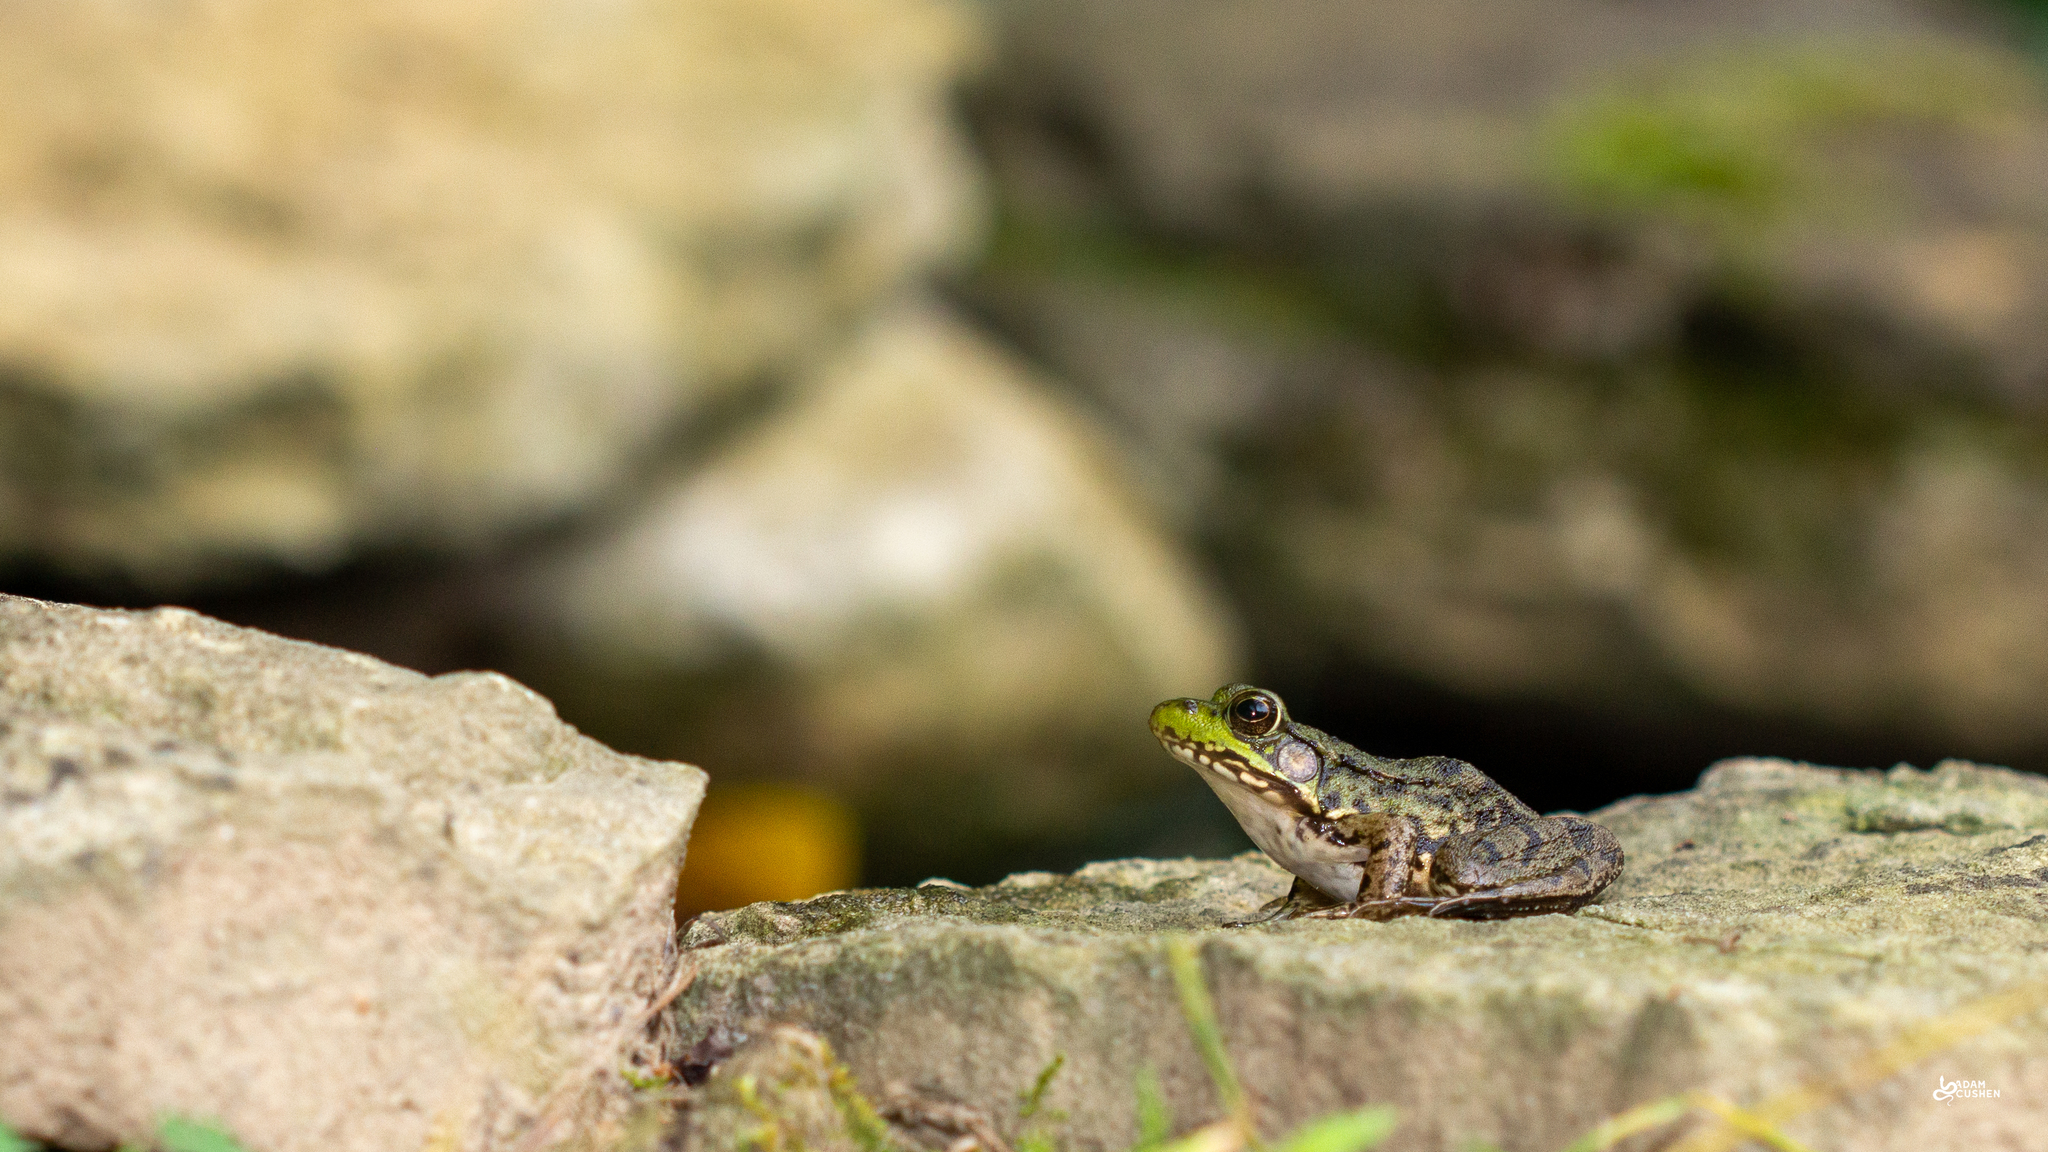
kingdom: Animalia
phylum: Chordata
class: Amphibia
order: Anura
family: Ranidae
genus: Lithobates
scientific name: Lithobates clamitans
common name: Green frog
